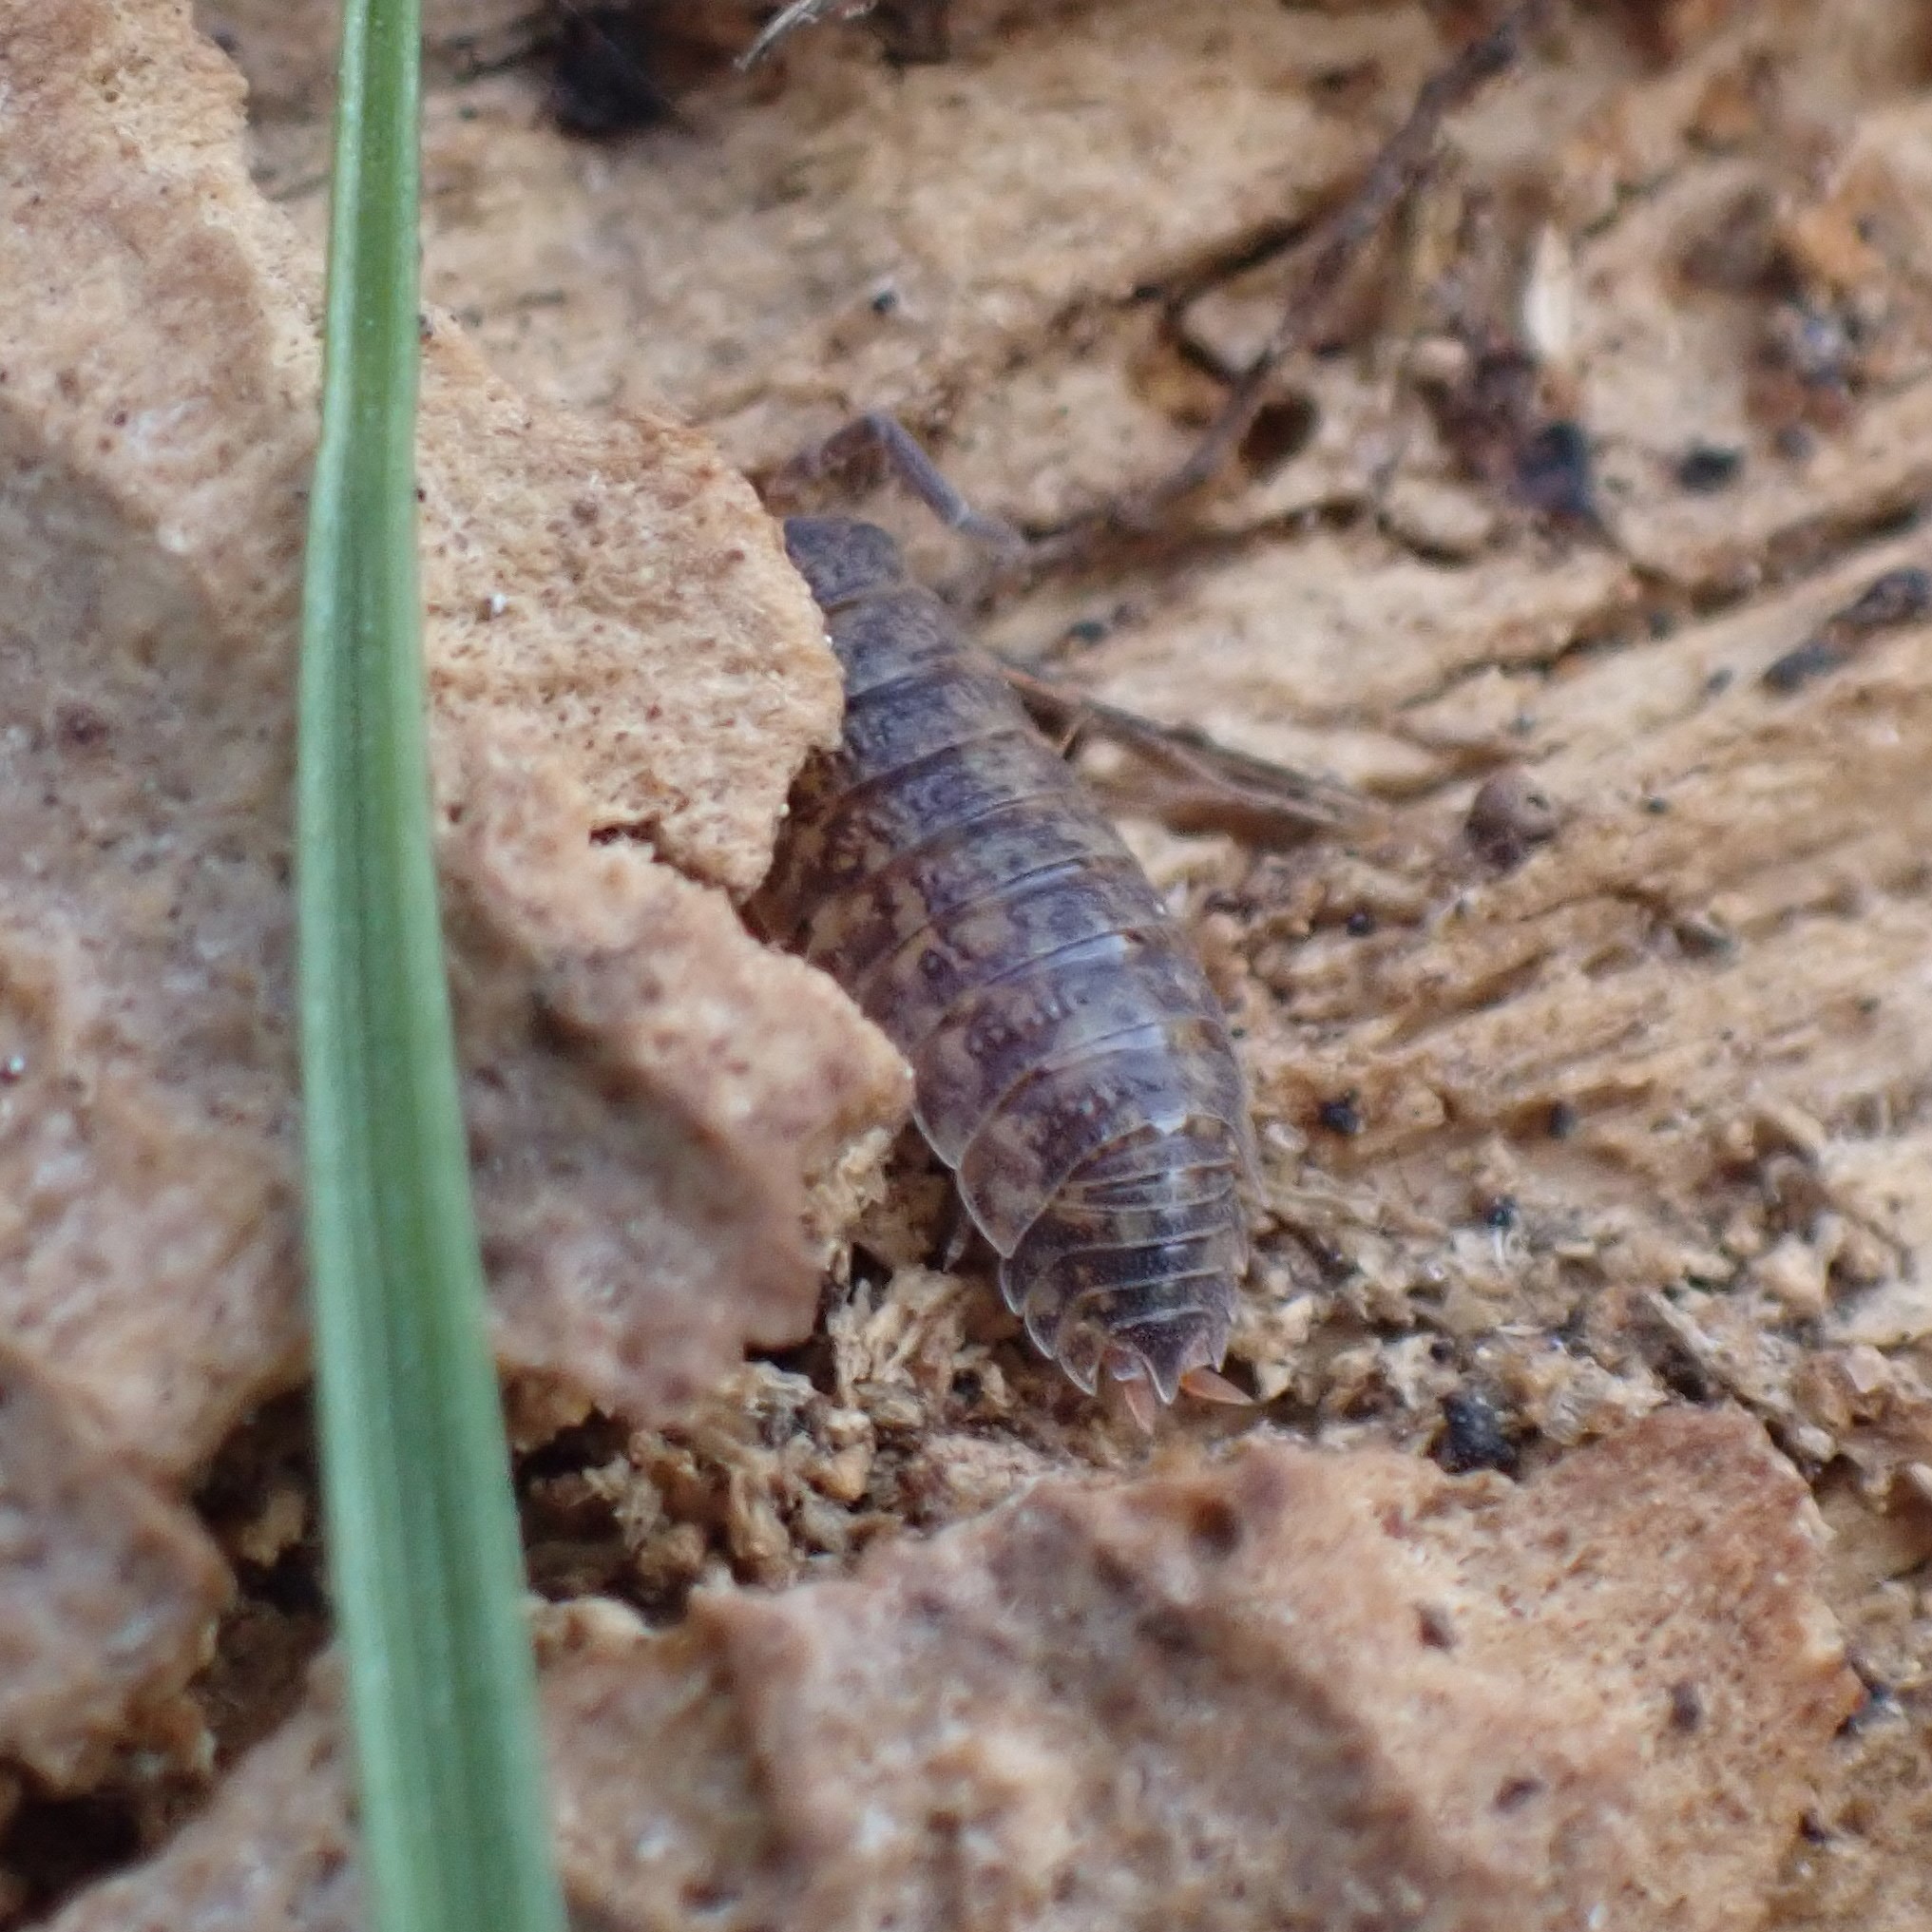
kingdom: Animalia
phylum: Arthropoda
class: Malacostraca
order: Isopoda
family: Porcellionidae
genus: Porcellio
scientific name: Porcellio scaber
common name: Common rough woodlouse
